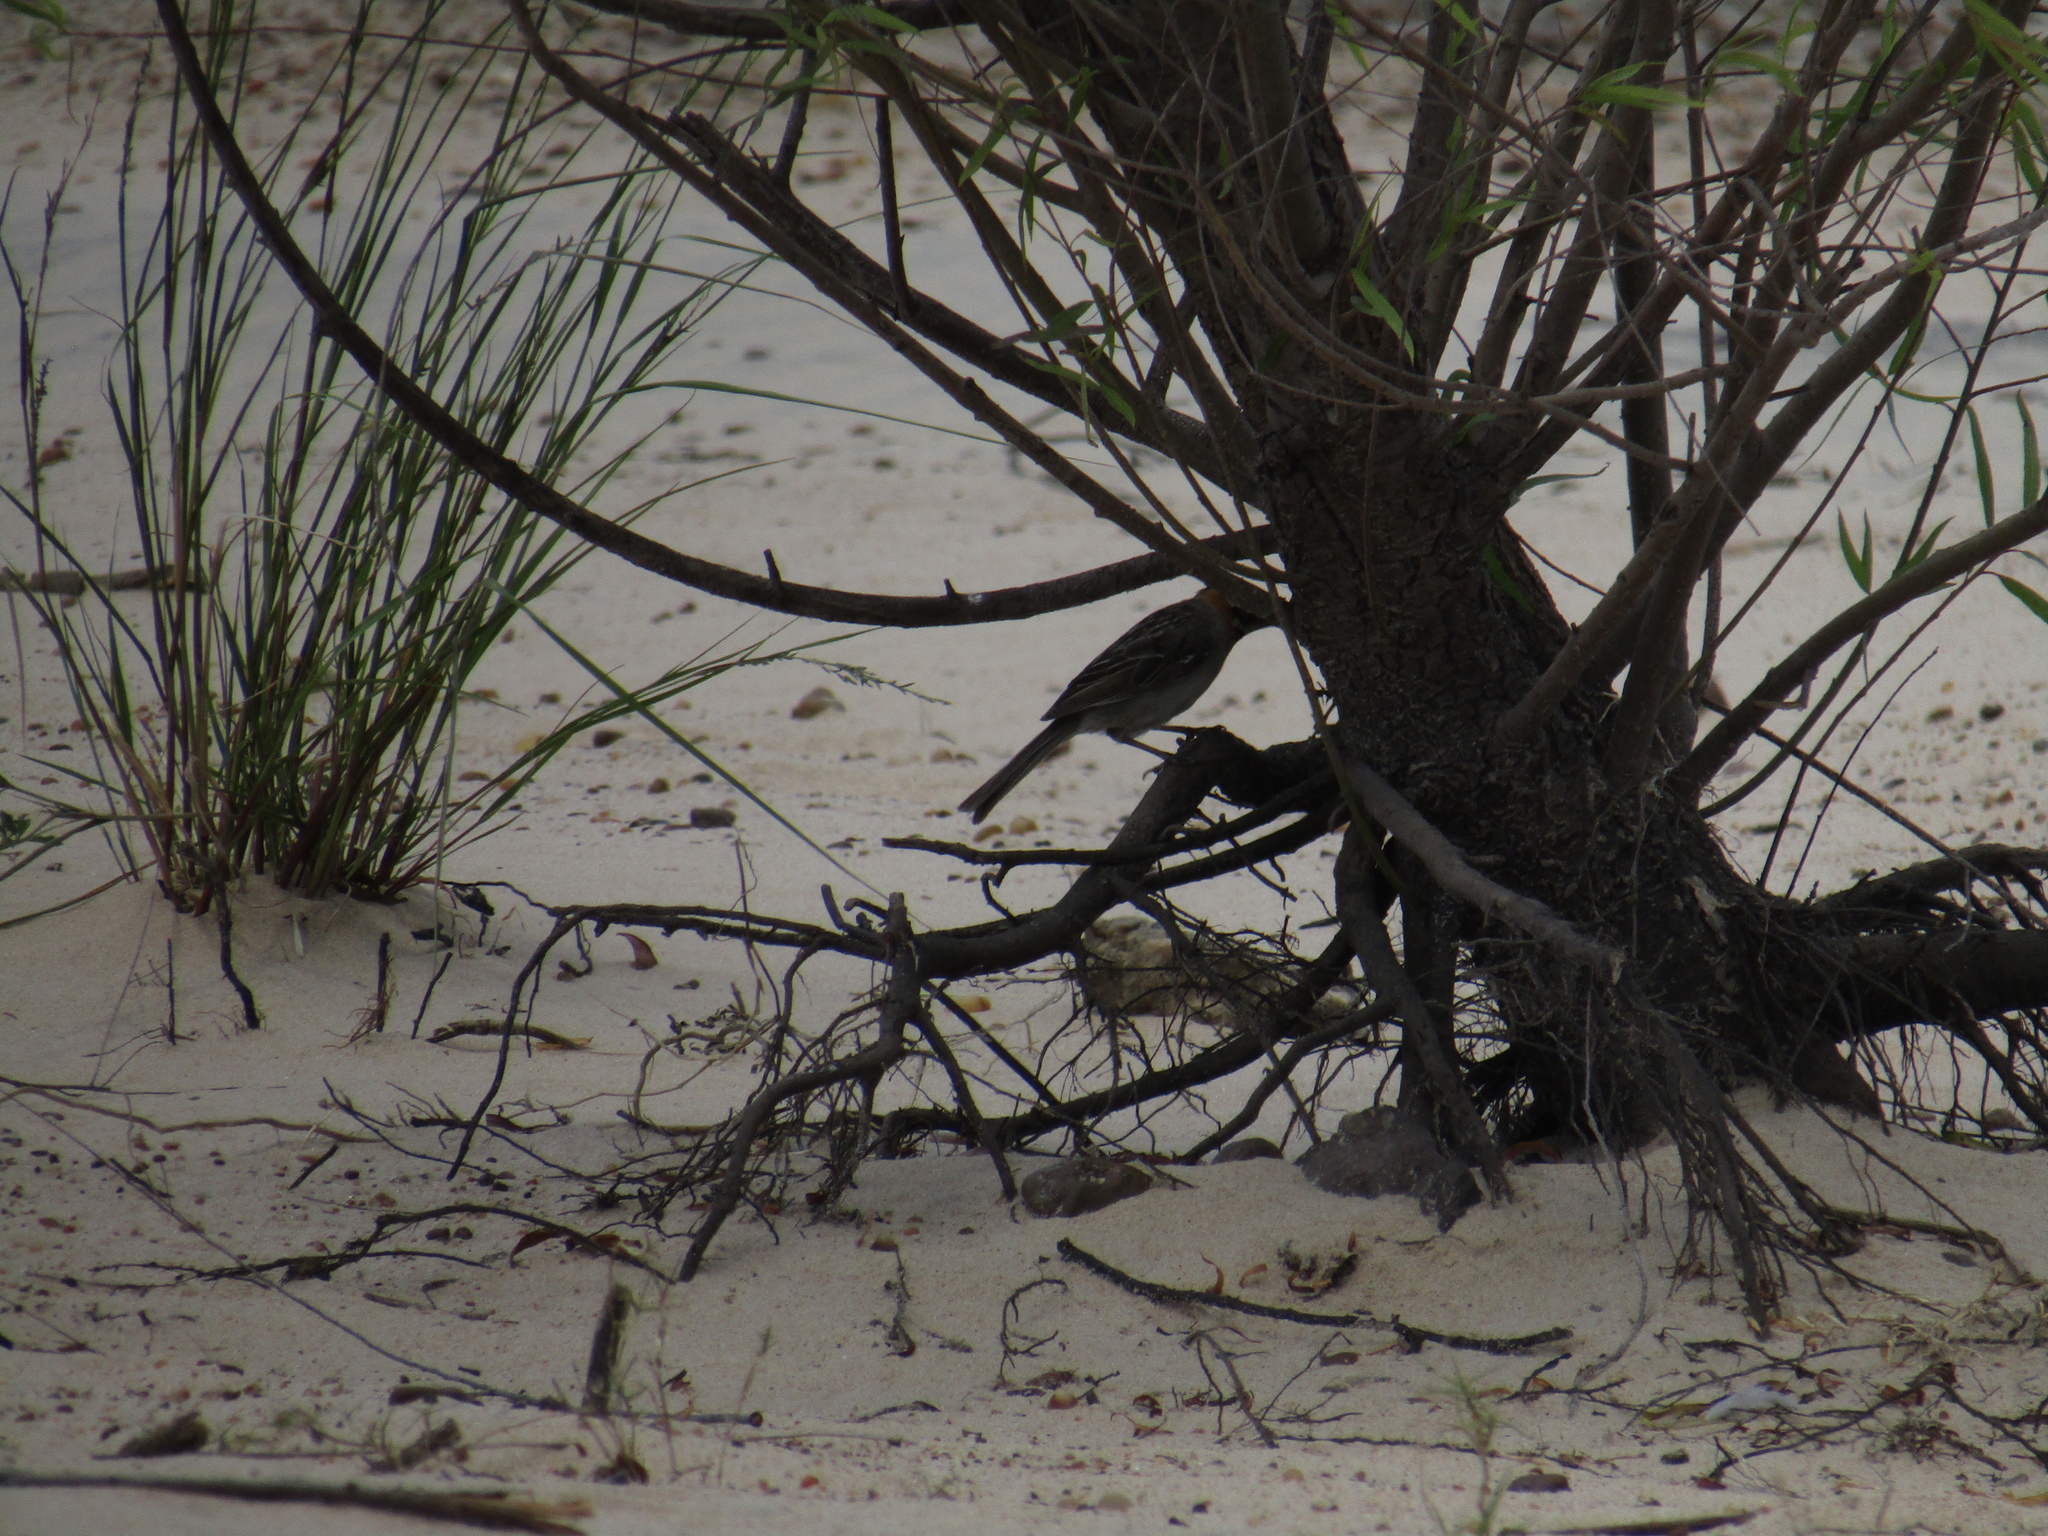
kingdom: Animalia
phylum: Chordata
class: Aves
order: Passeriformes
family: Passerellidae
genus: Zonotrichia
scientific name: Zonotrichia capensis
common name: Rufous-collared sparrow
